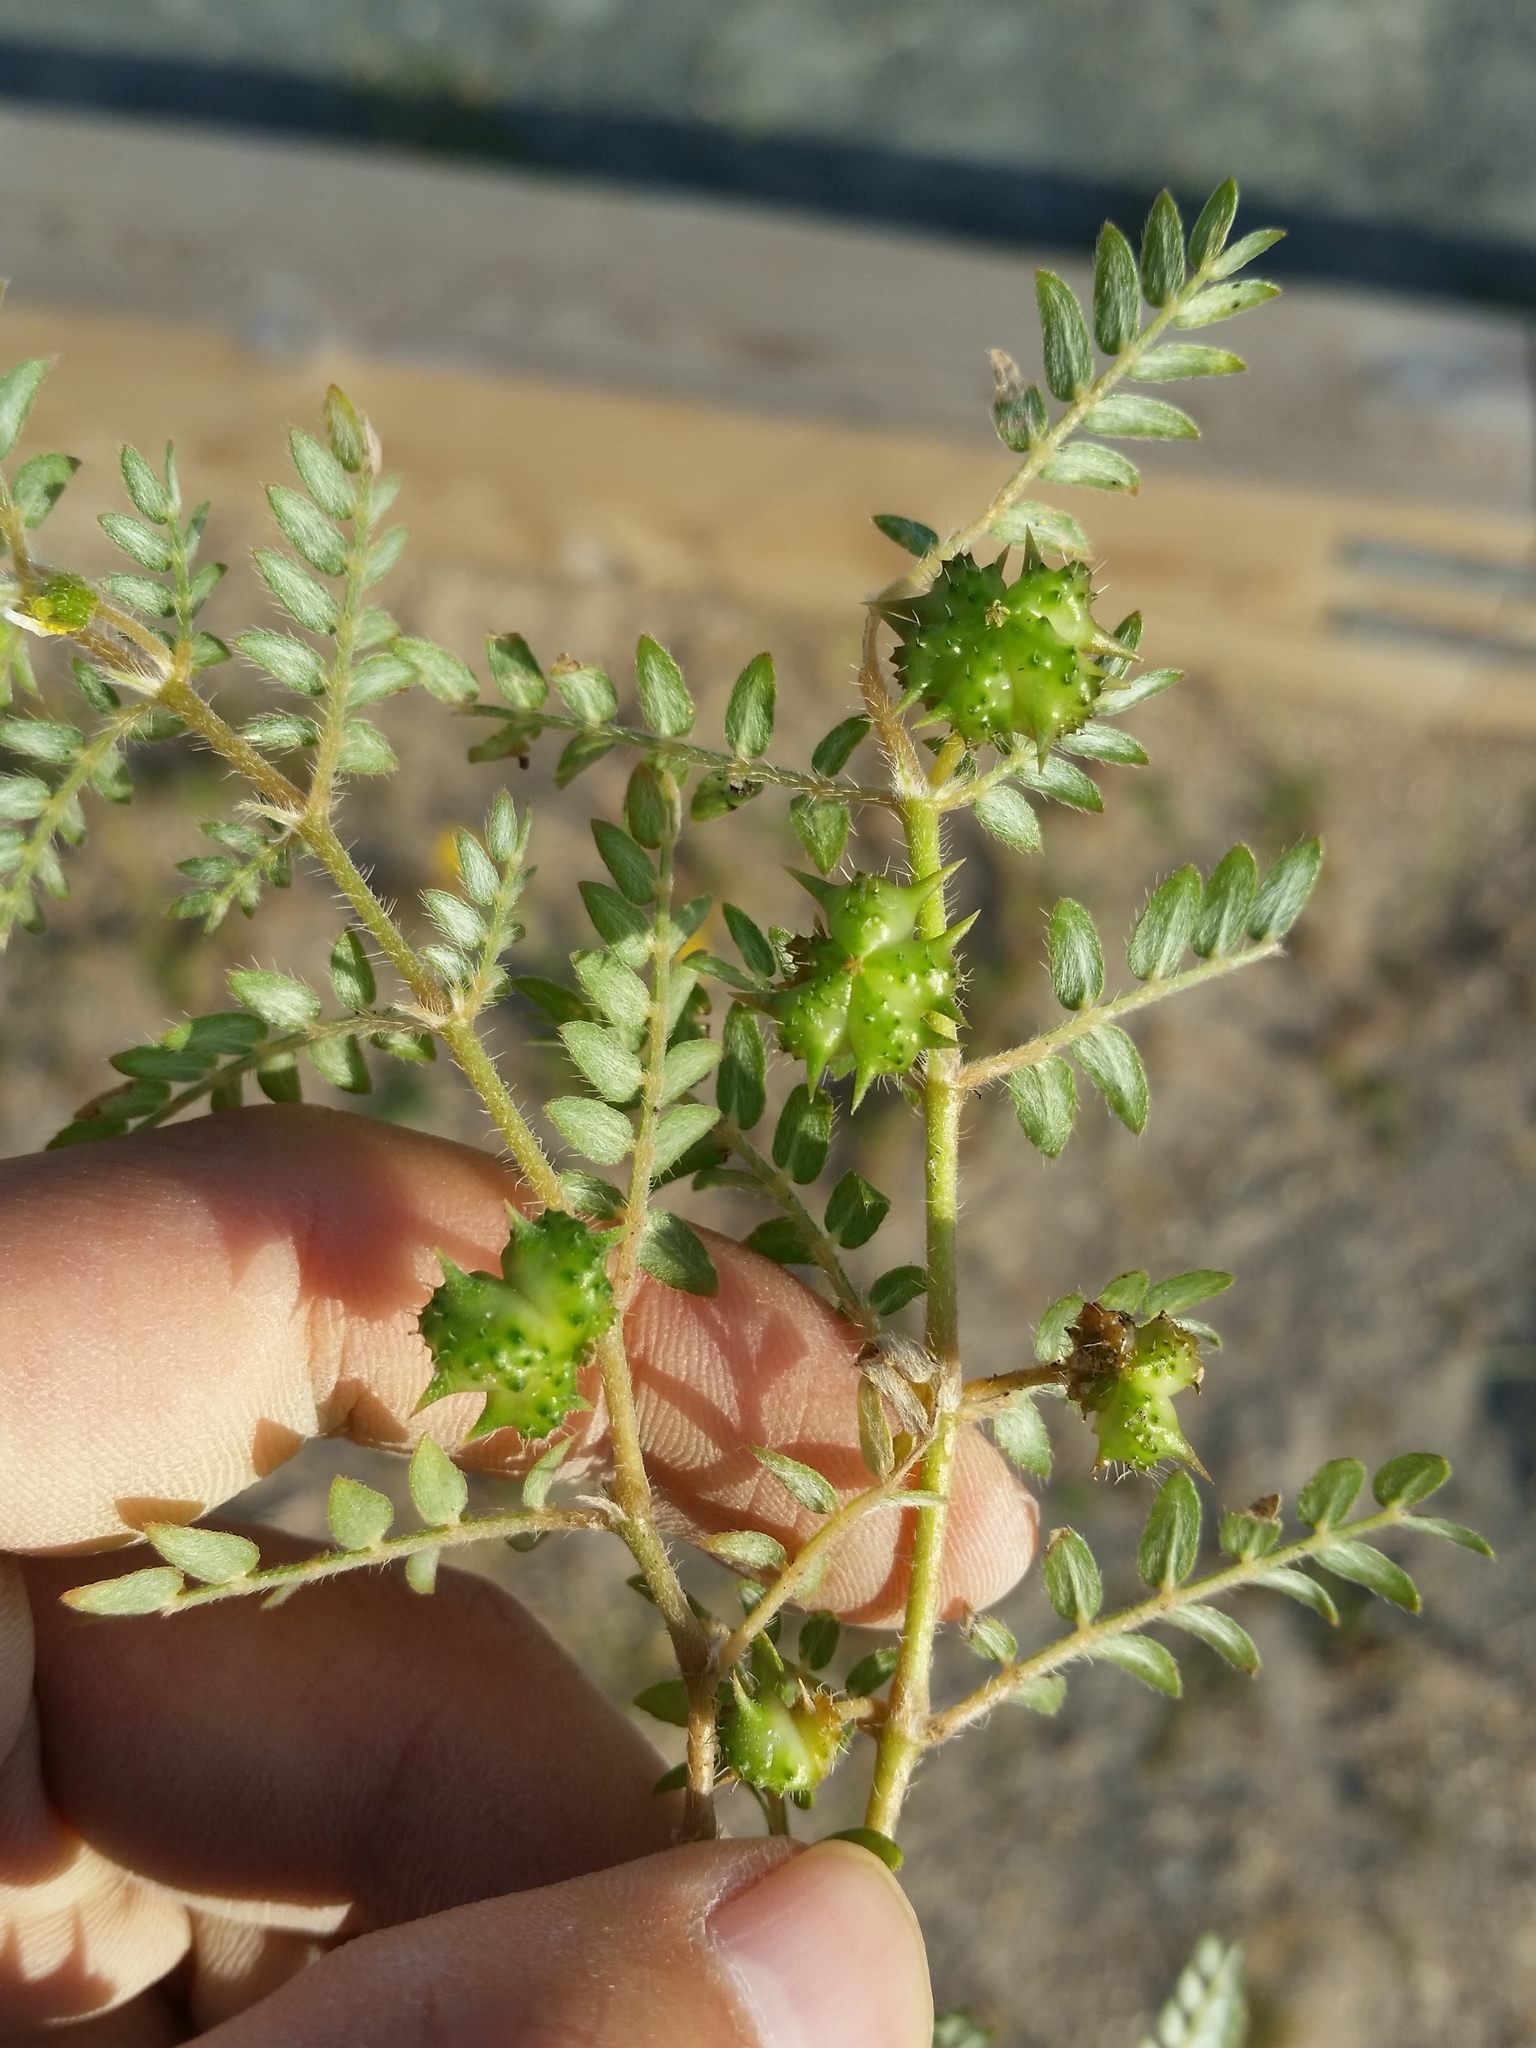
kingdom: Plantae
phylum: Tracheophyta
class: Magnoliopsida
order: Zygophyllales
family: Zygophyllaceae
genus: Tribulus
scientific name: Tribulus terrestris
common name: Puncturevine
